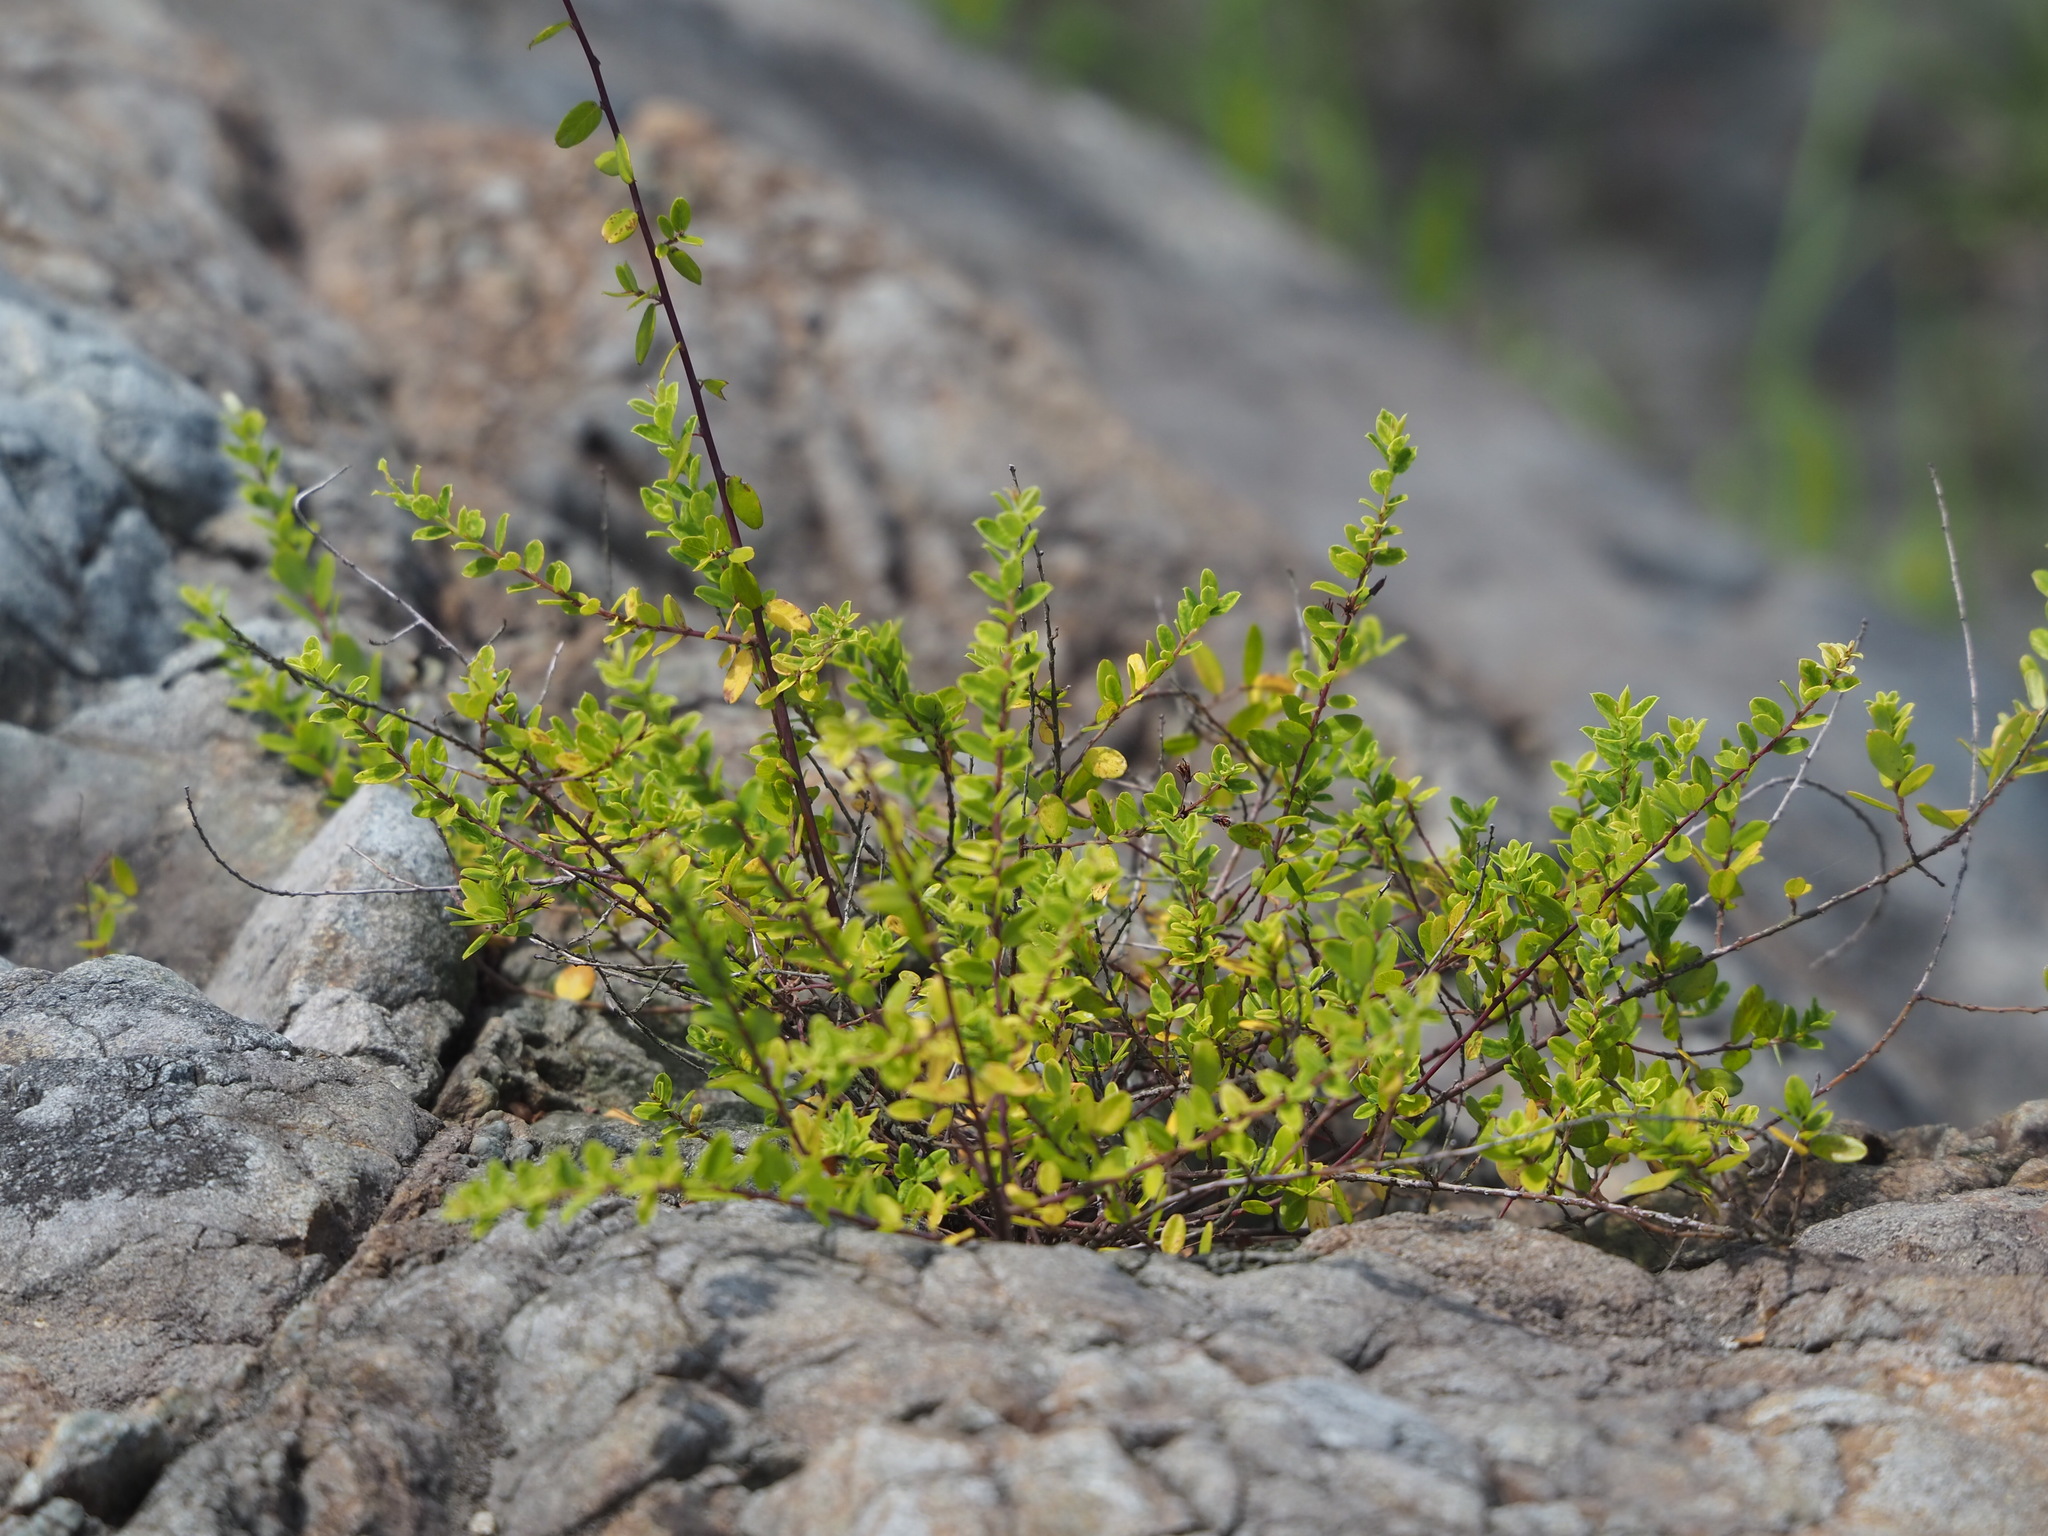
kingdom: Plantae
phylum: Tracheophyta
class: Magnoliopsida
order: Rosales
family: Rhamnaceae
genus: Berchemia
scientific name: Berchemia lineata
